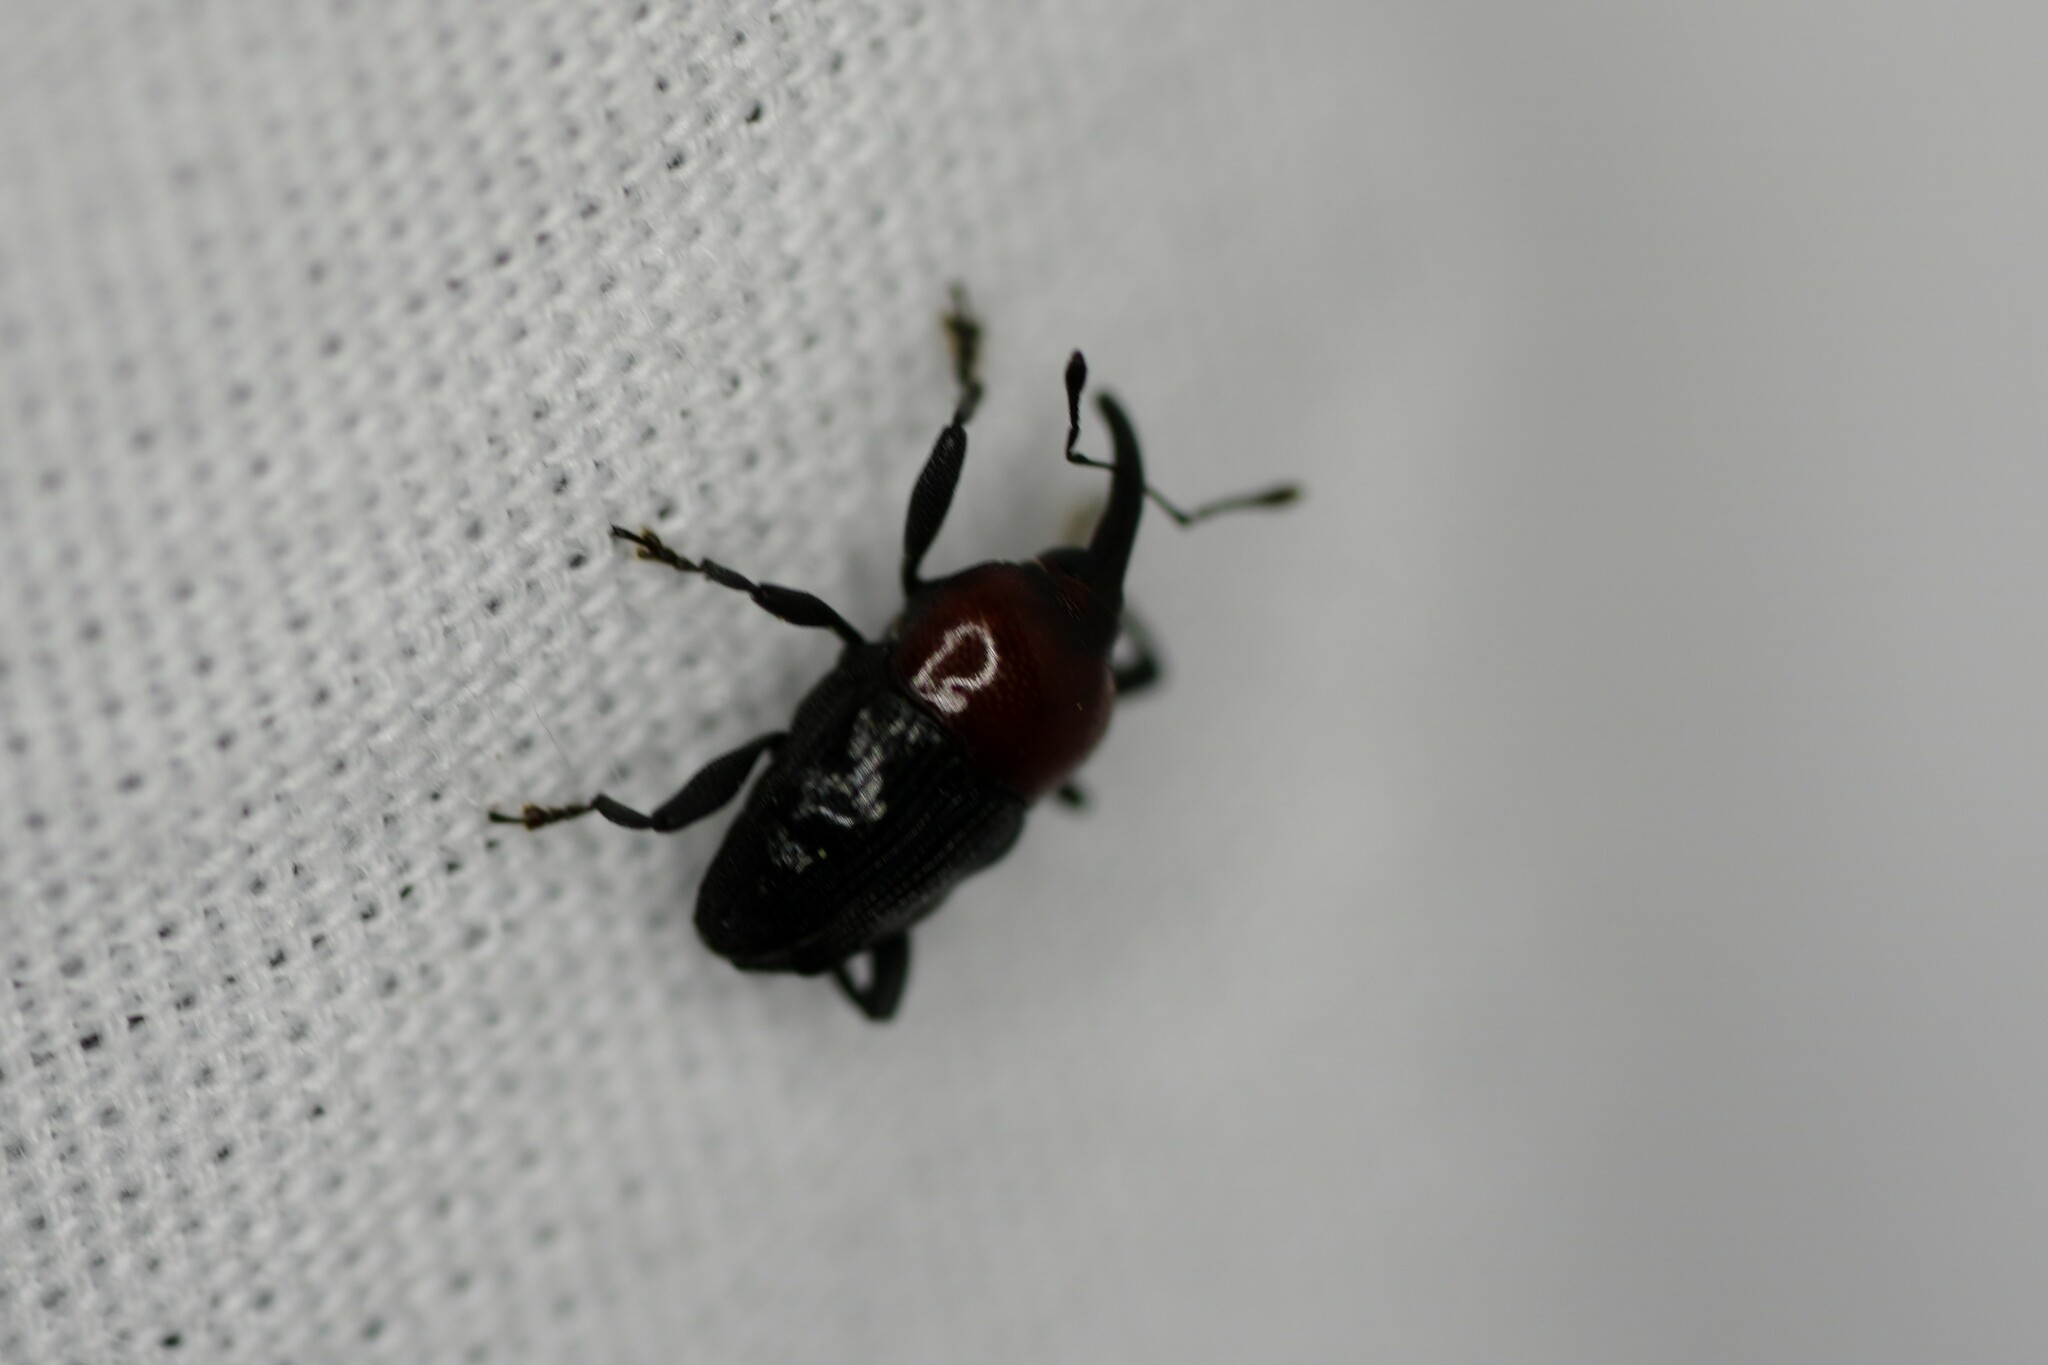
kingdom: Animalia
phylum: Arthropoda
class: Insecta
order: Coleoptera
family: Curculionidae
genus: Madarellus
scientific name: Madarellus undulatus
